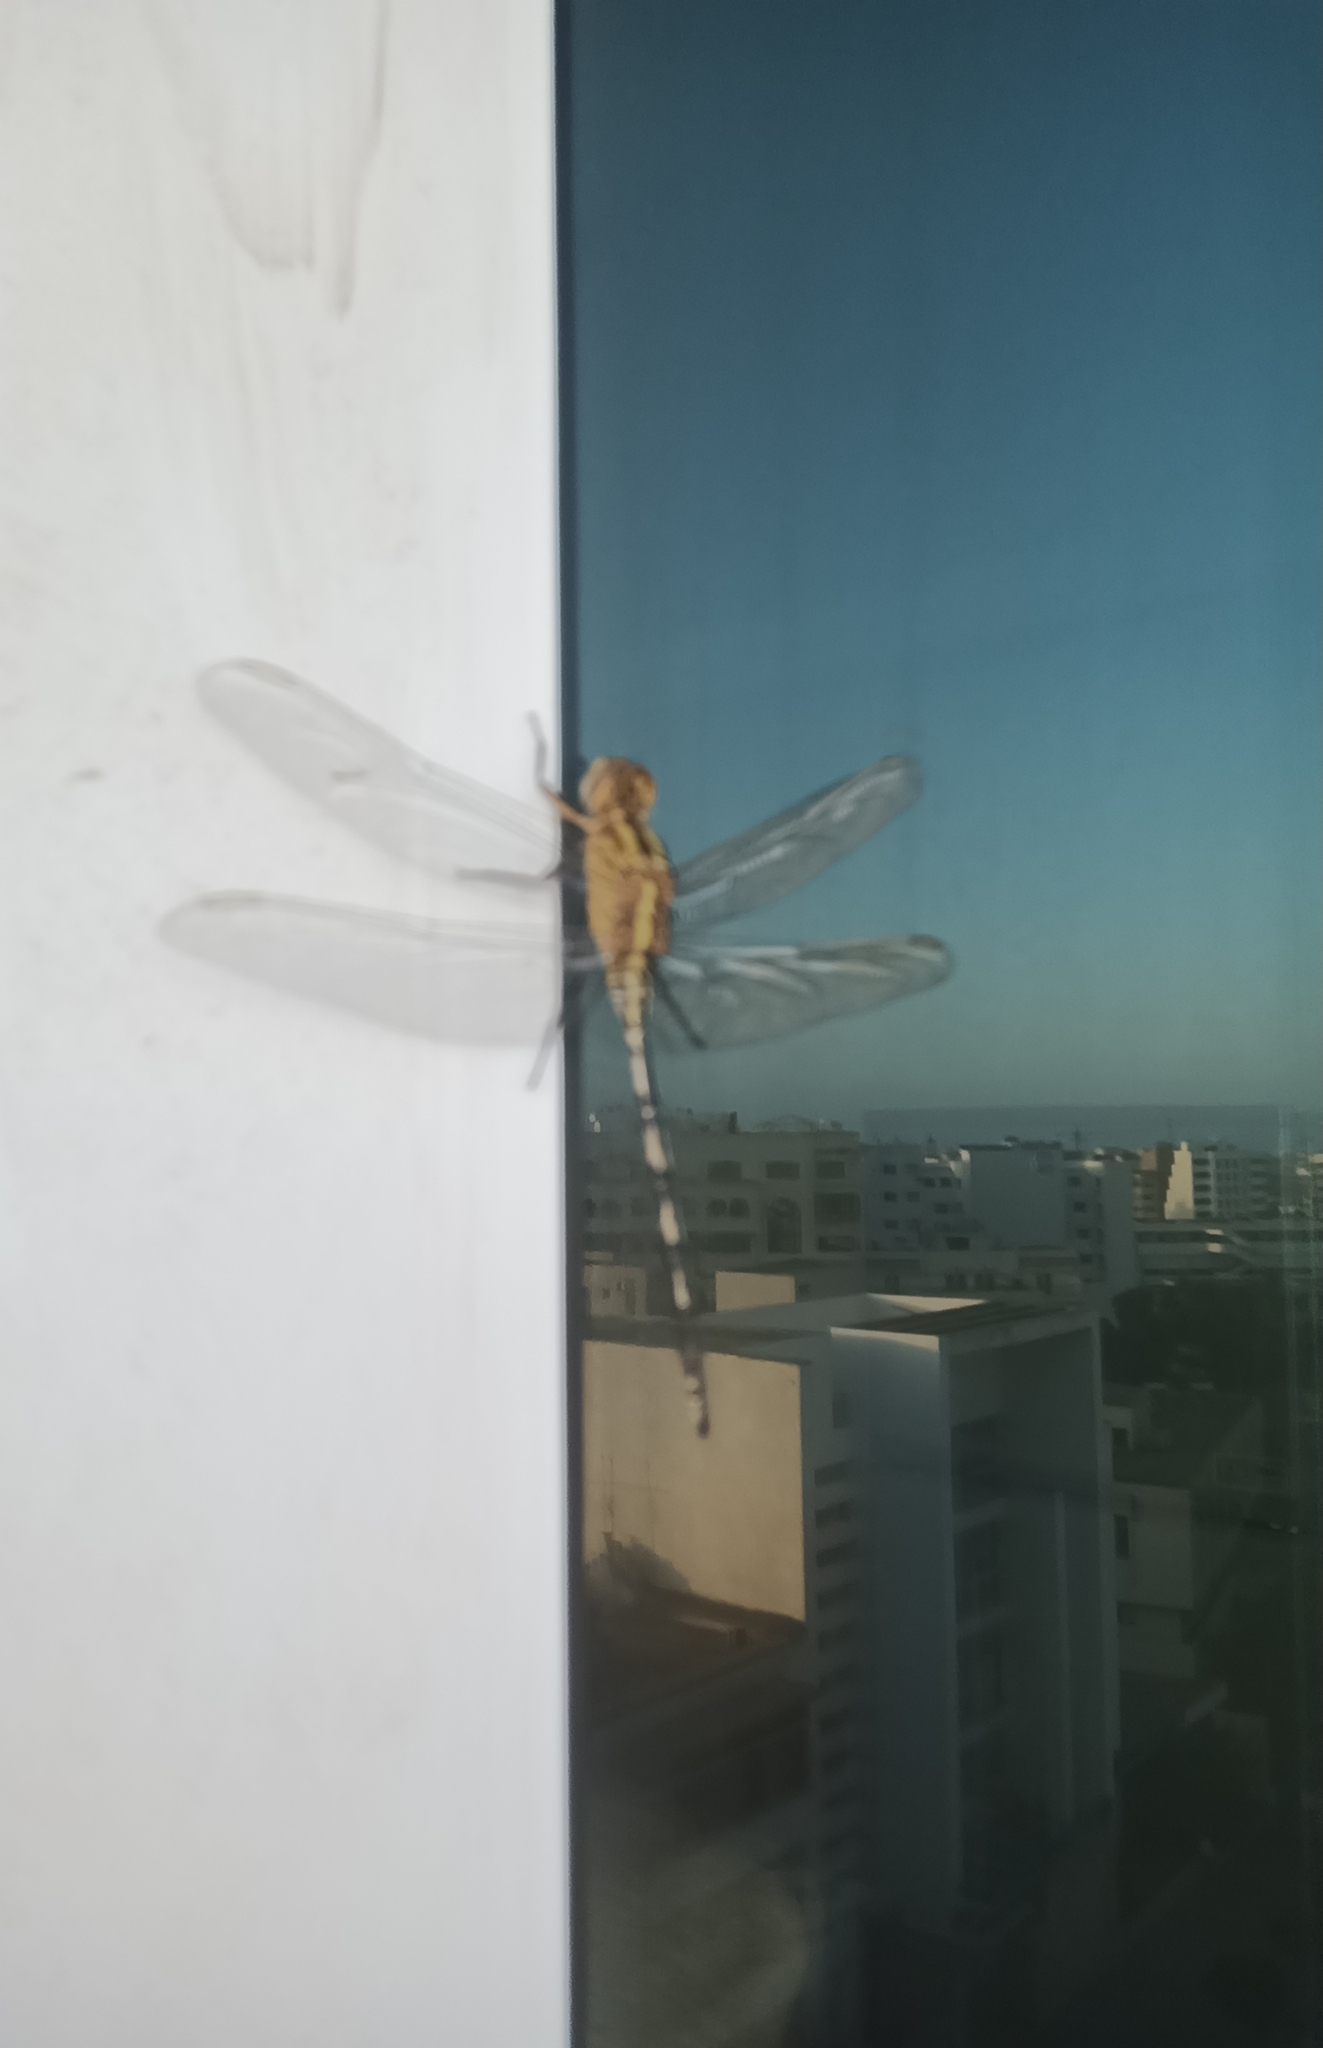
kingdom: Animalia
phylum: Arthropoda
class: Insecta
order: Odonata
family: Libellulidae
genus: Orthetrum
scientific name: Orthetrum trinacria
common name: Long skimmer
